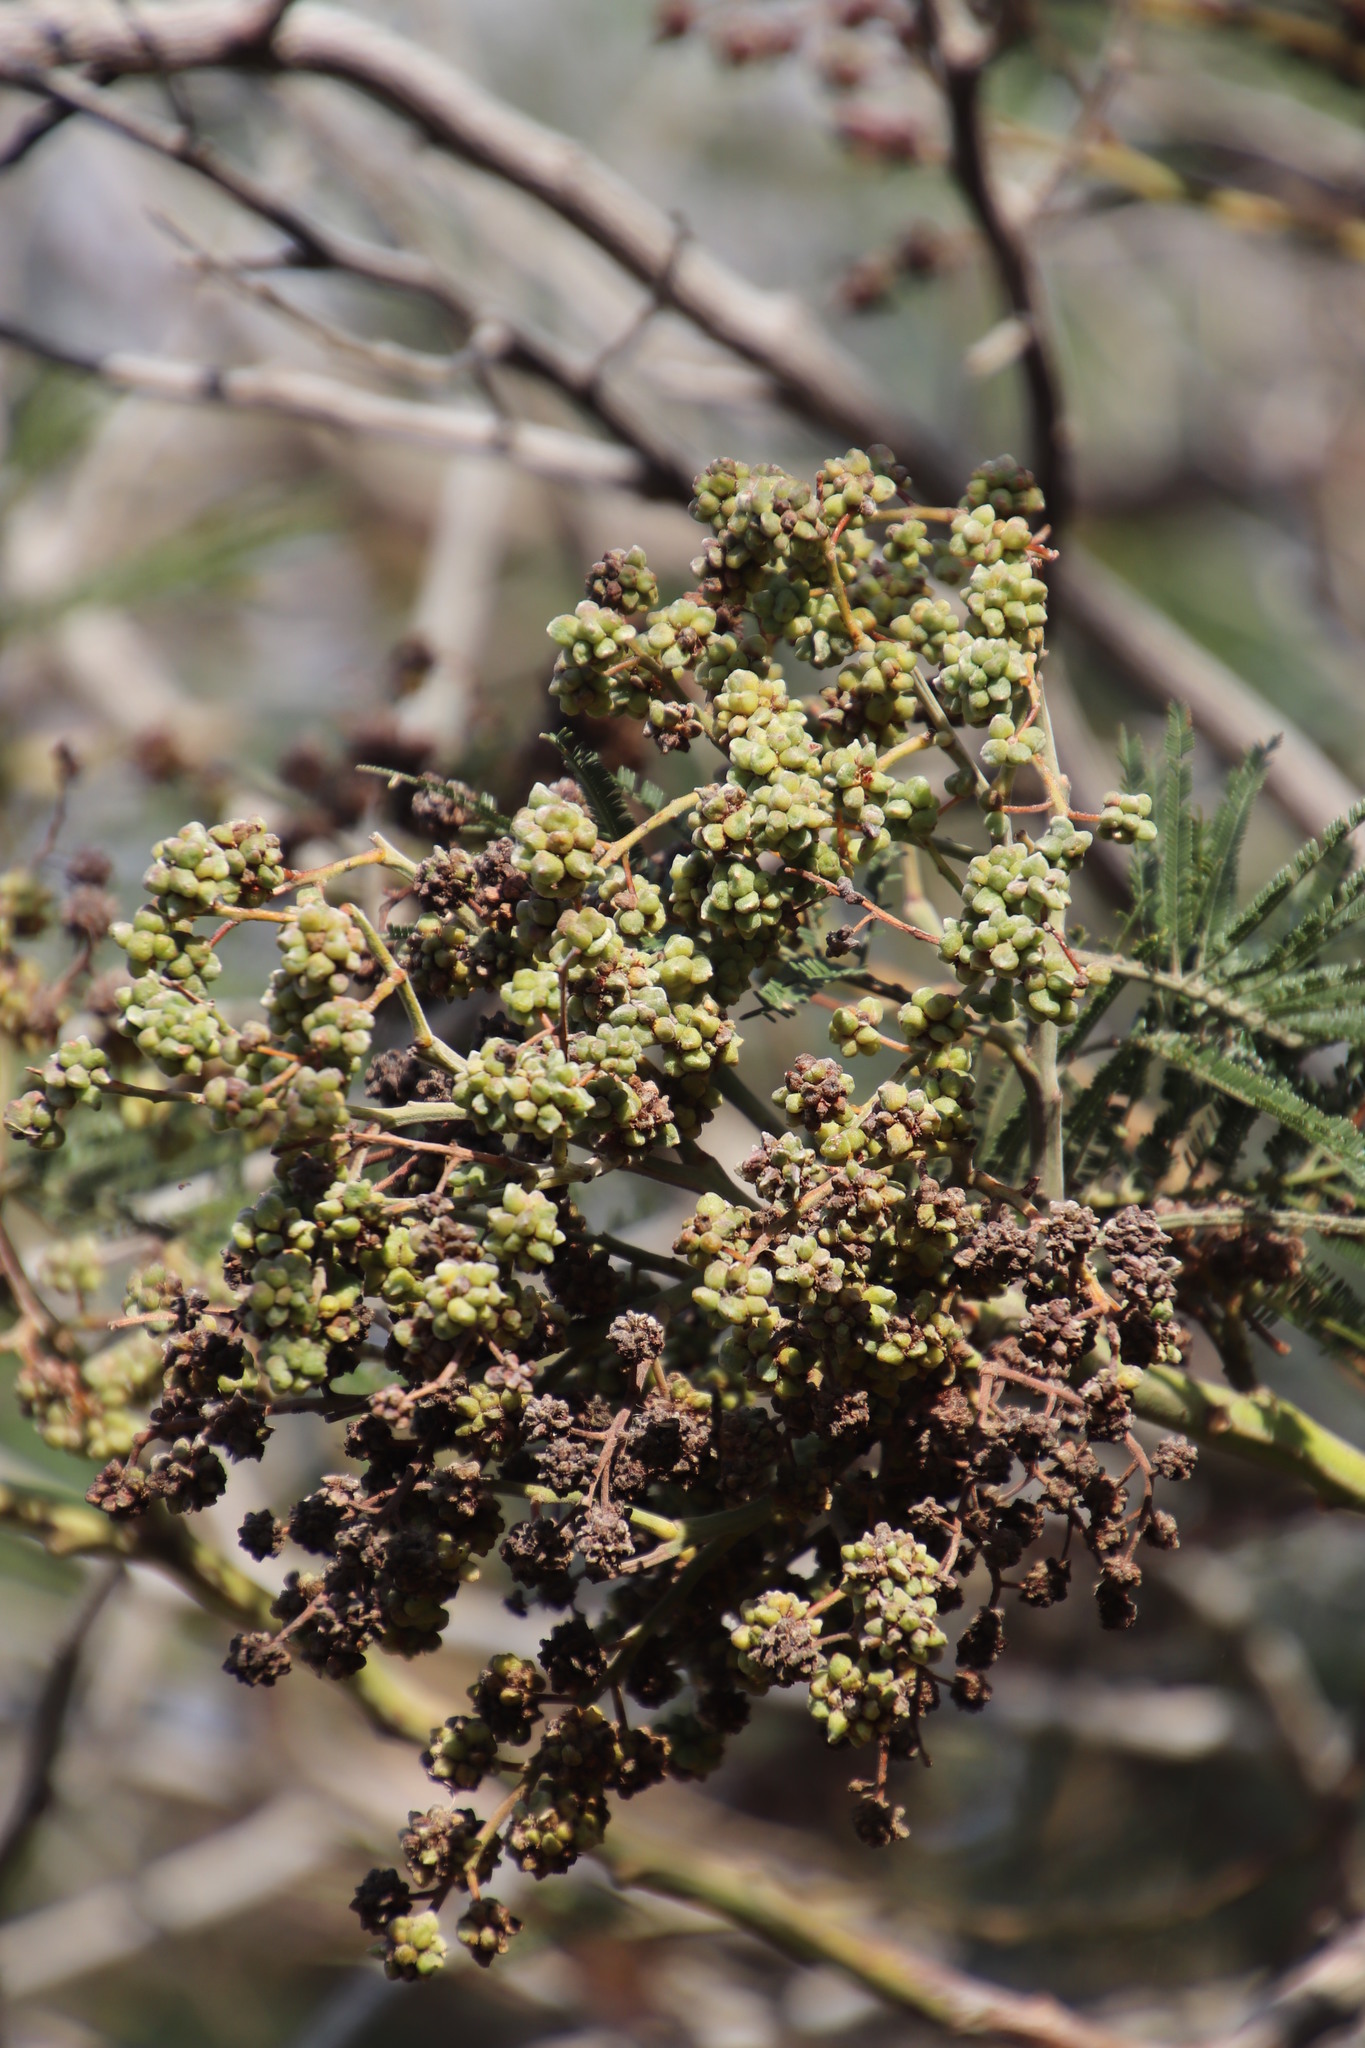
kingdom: Animalia
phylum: Arthropoda
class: Insecta
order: Diptera
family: Cecidomyiidae
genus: Dasineura
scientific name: Dasineura rubiformis
